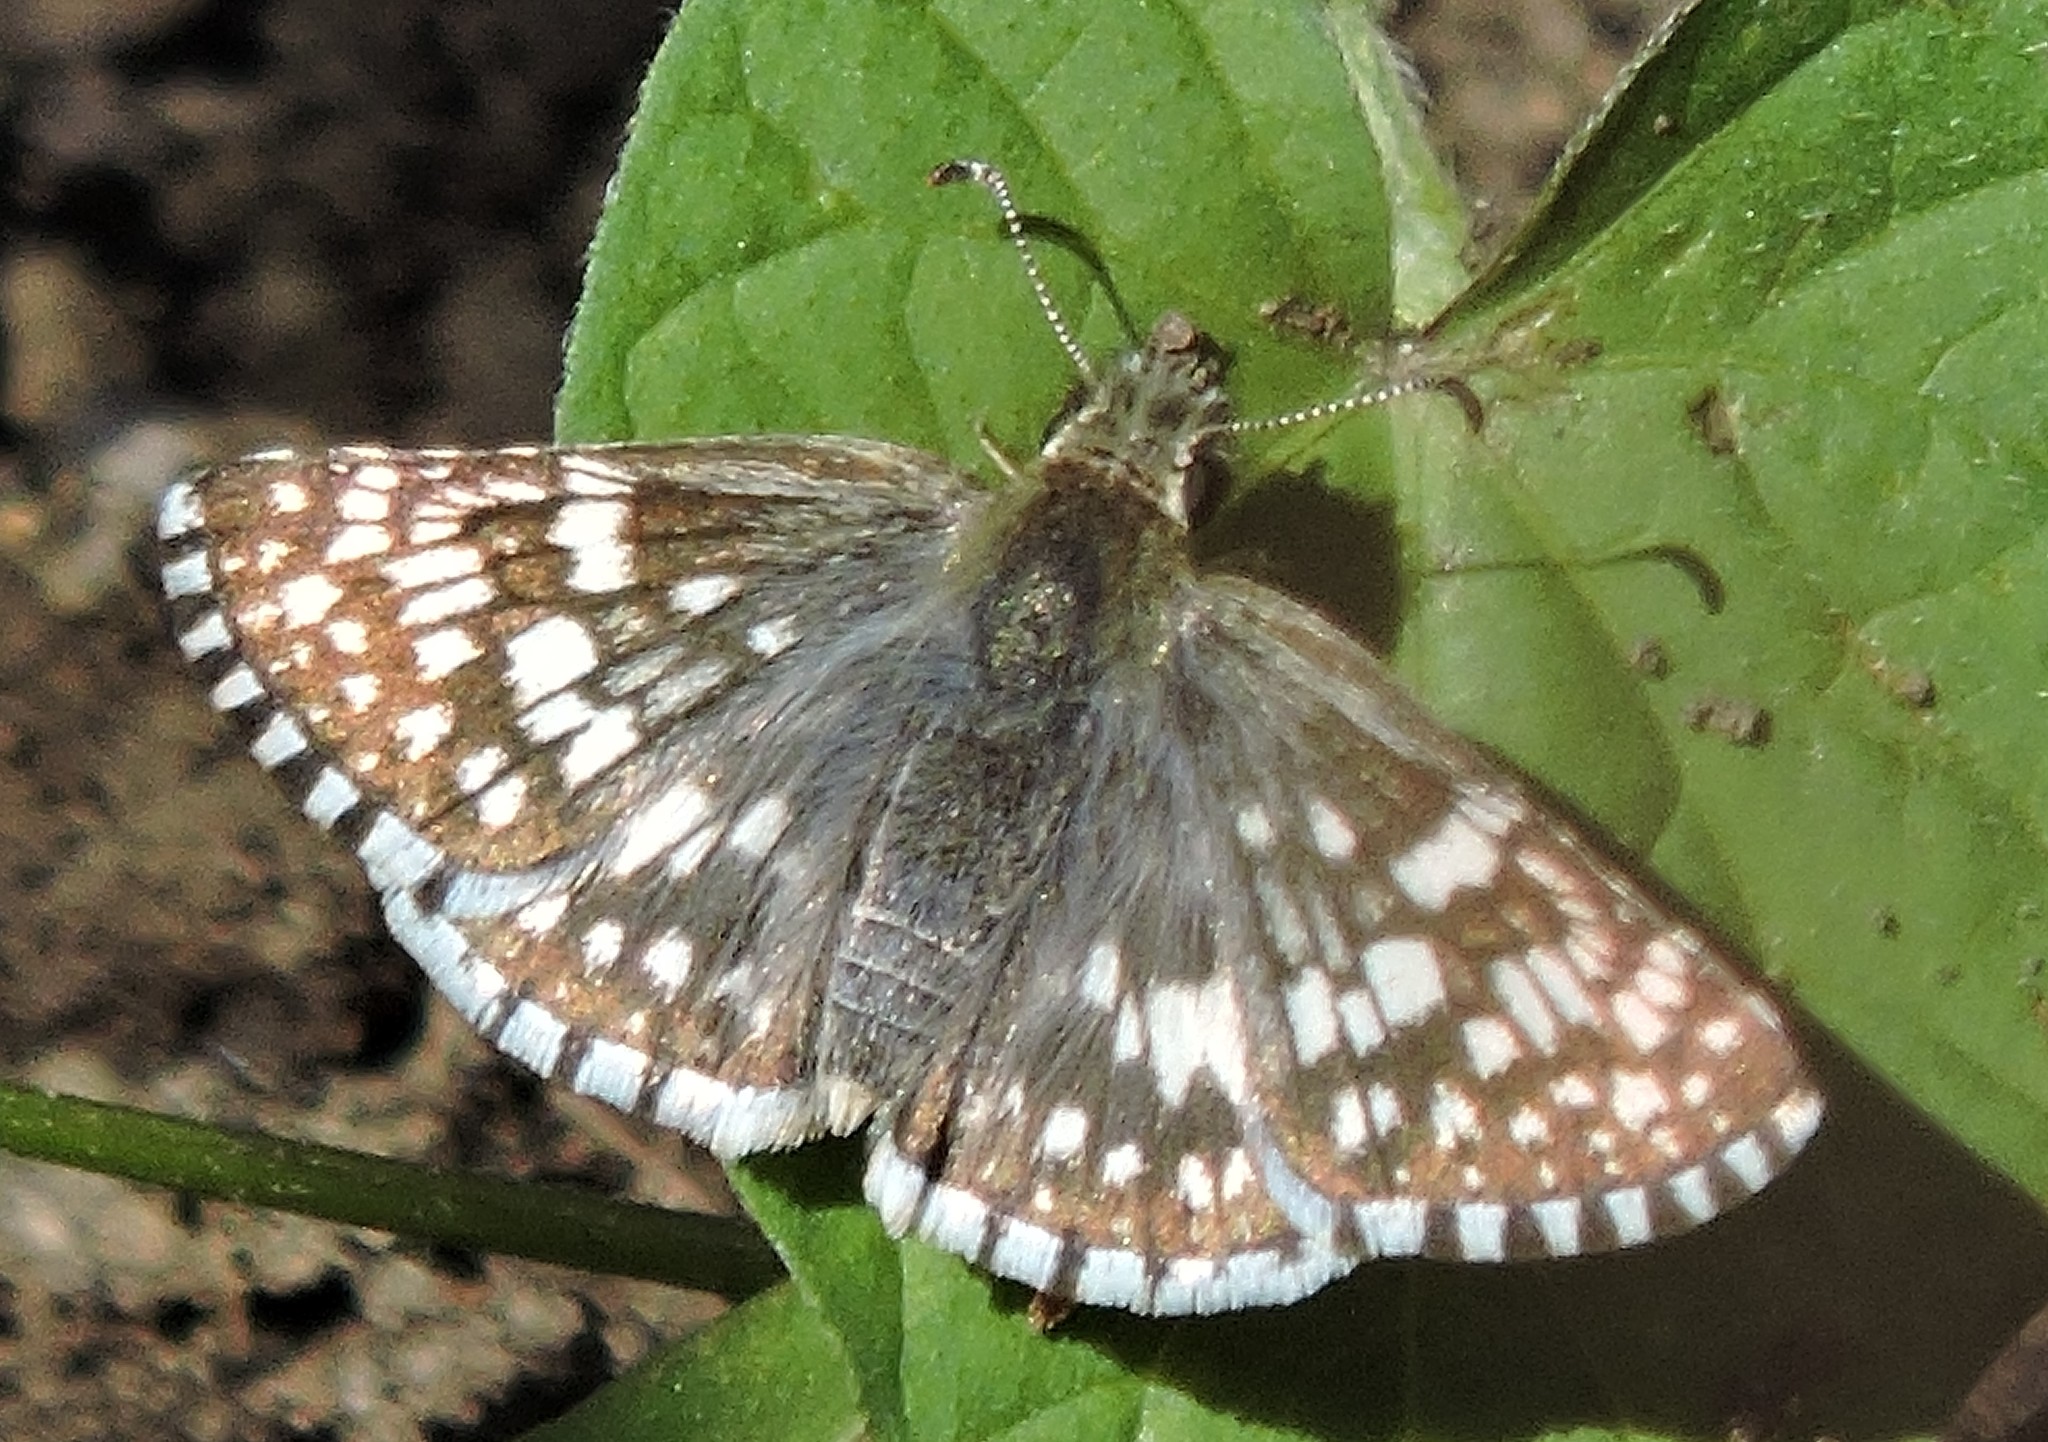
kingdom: Animalia
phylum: Arthropoda
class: Insecta
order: Lepidoptera
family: Hesperiidae
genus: Burnsius
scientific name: Burnsius communis
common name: Common checkered-skipper
